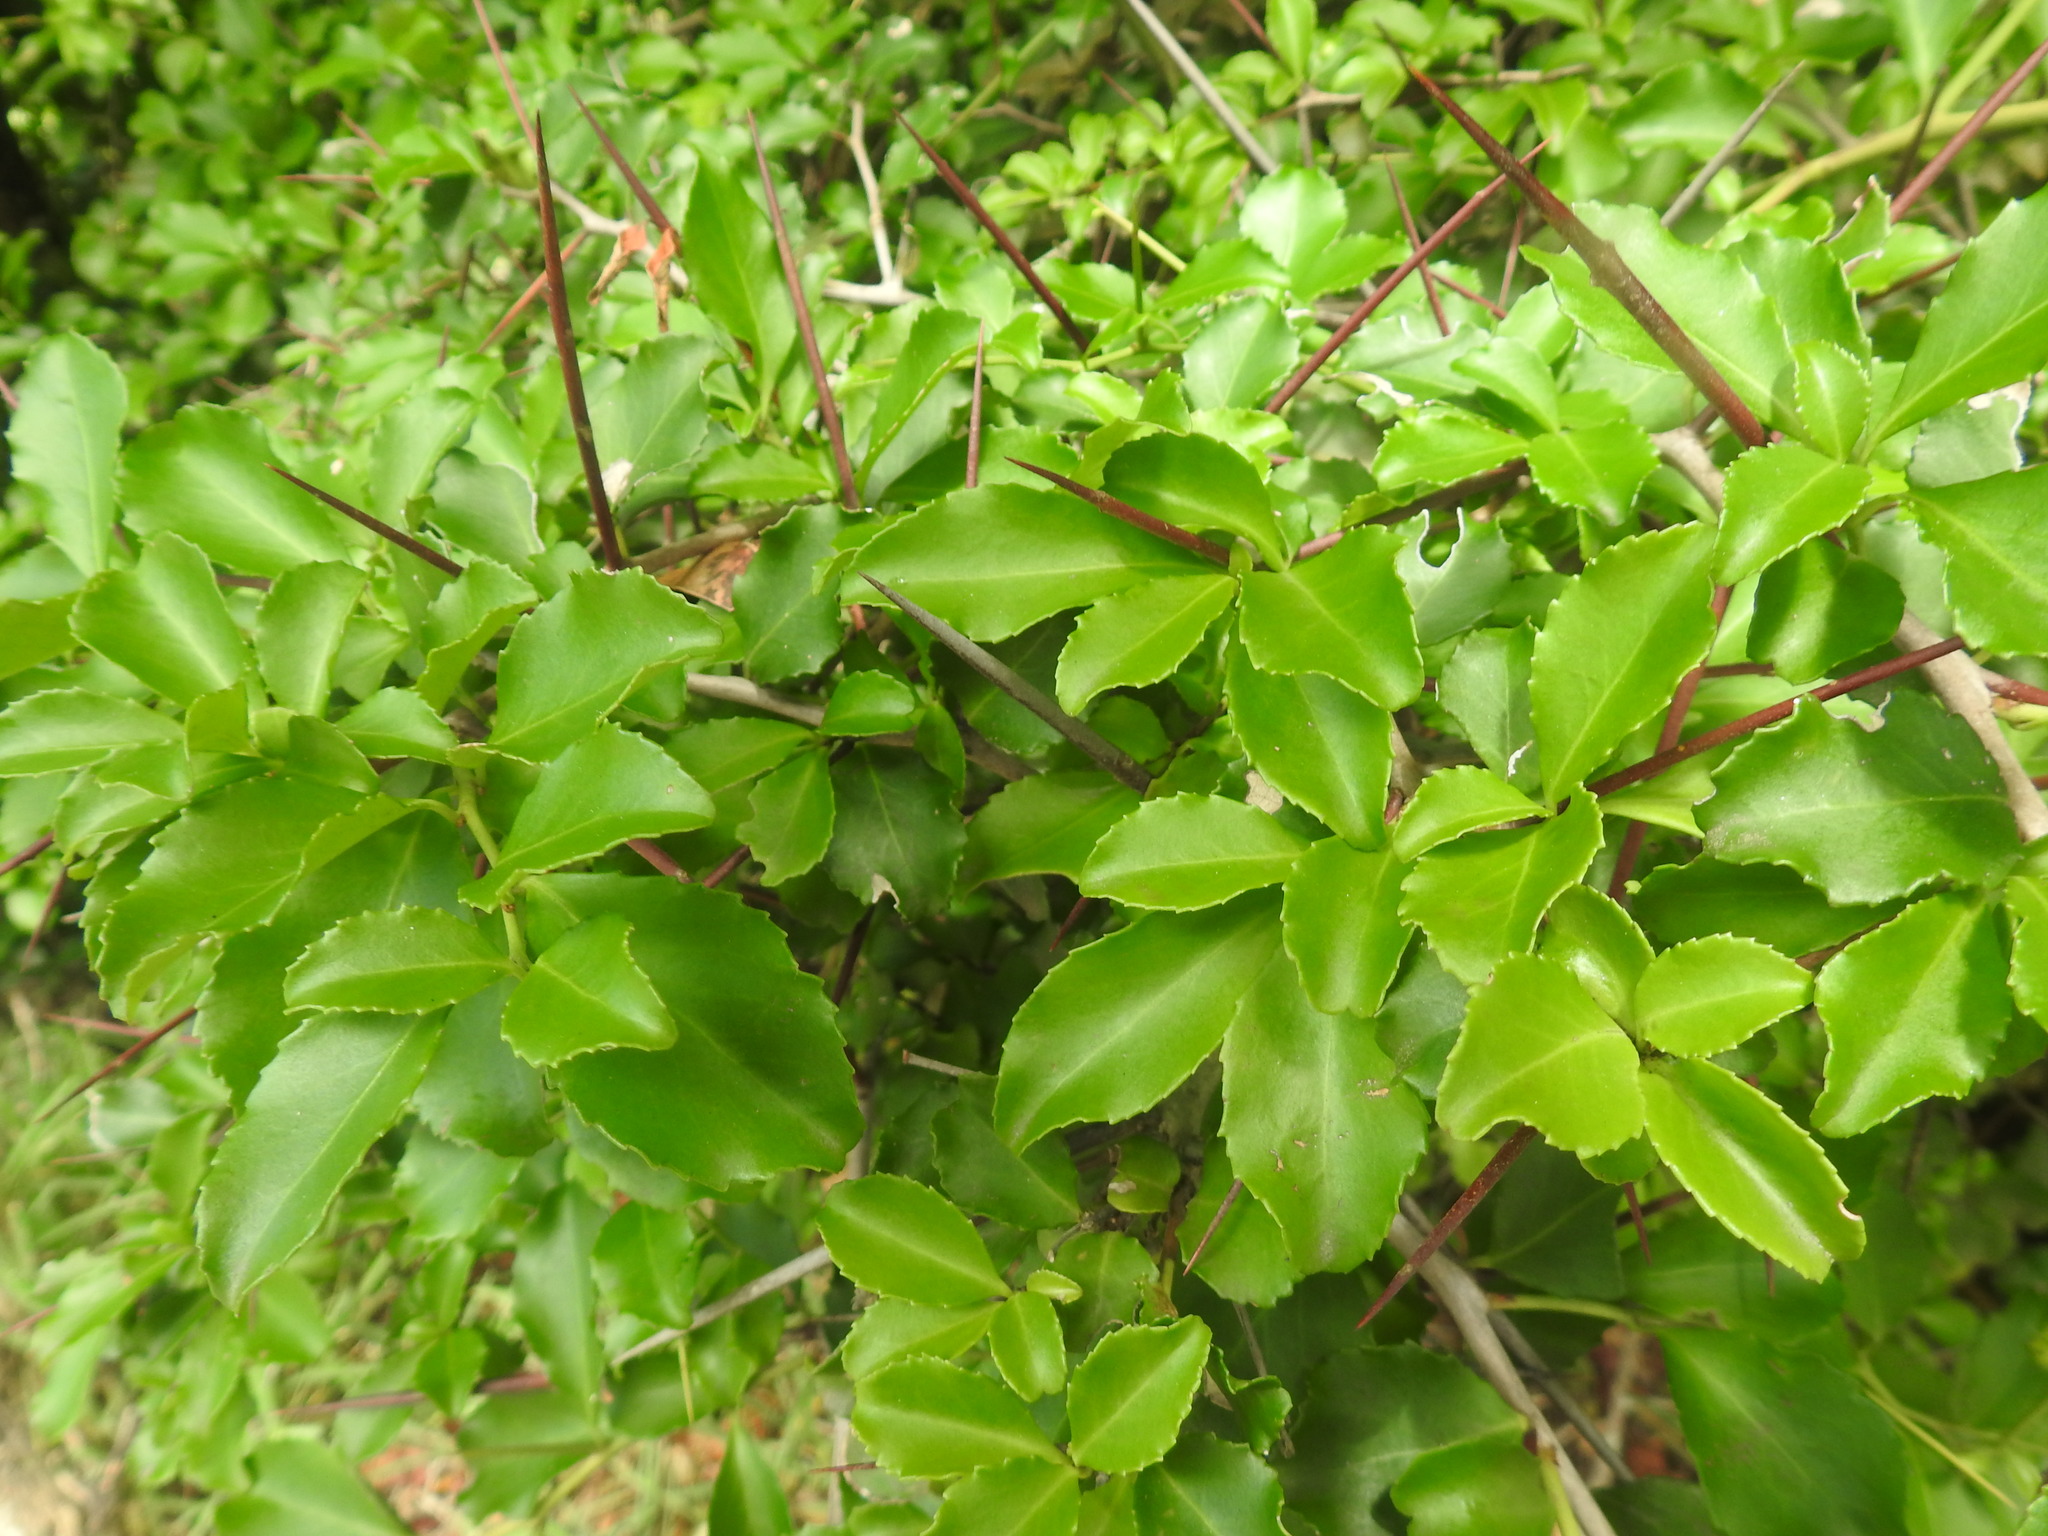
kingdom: Plantae
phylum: Tracheophyta
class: Magnoliopsida
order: Celastrales
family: Celastraceae
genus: Gymnosporia
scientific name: Gymnosporia nemorosa
